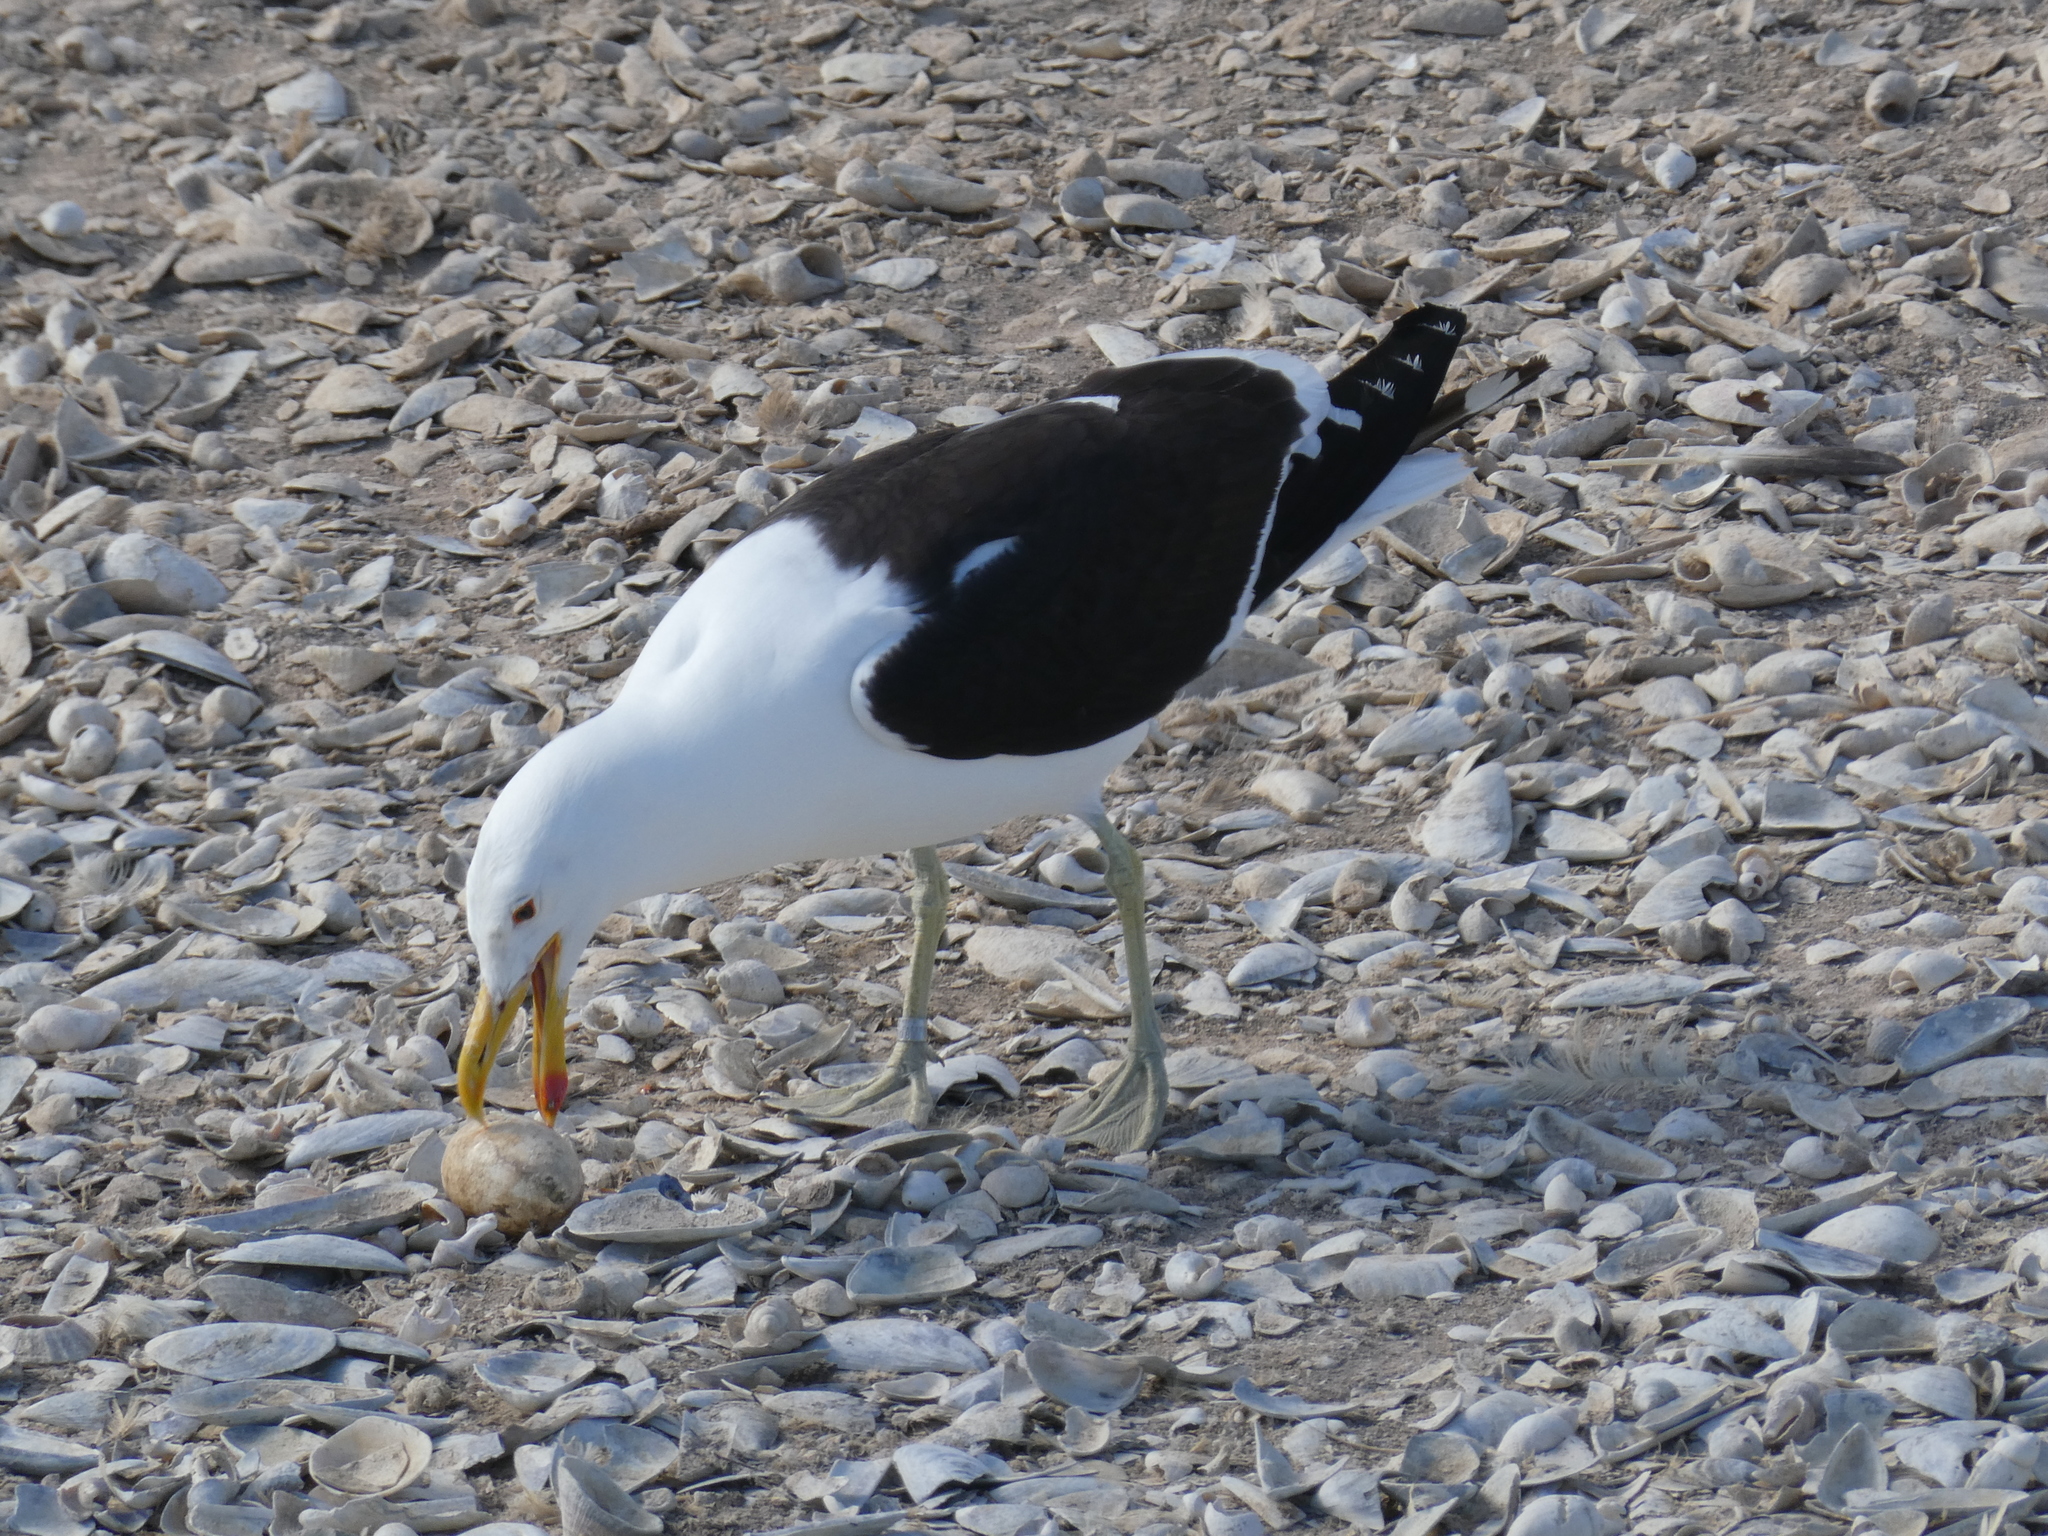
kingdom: Animalia
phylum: Chordata
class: Aves
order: Charadriiformes
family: Laridae
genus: Larus
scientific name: Larus dominicanus
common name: Kelp gull
